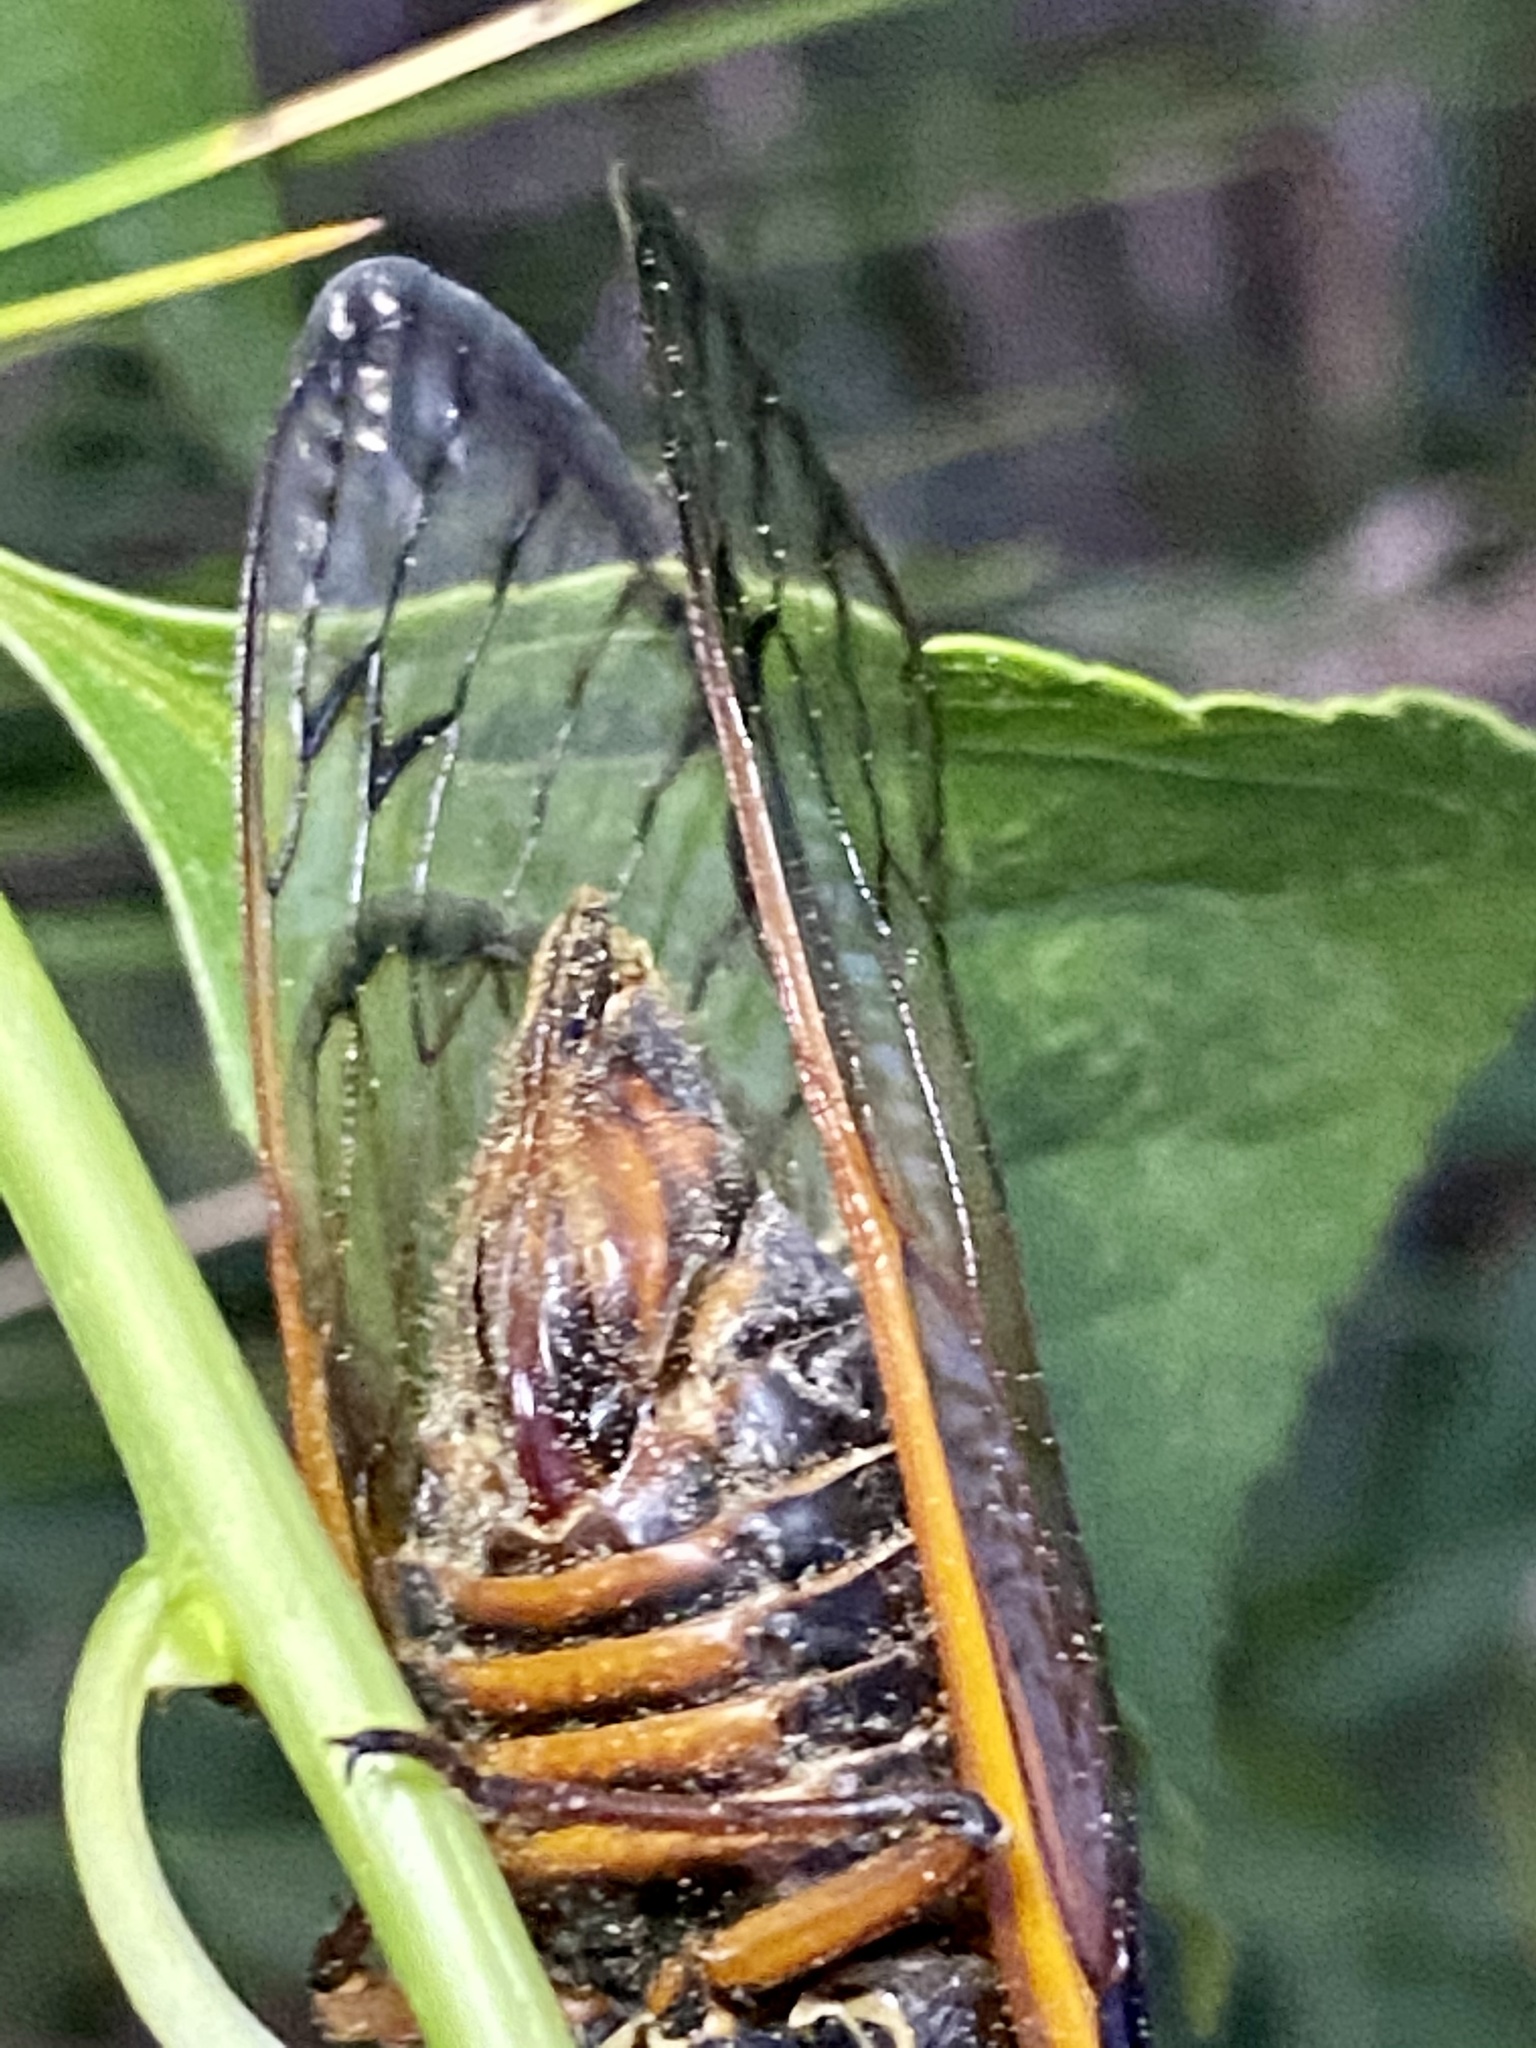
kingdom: Animalia
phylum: Arthropoda
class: Insecta
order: Hemiptera
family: Cicadidae
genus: Magicicada
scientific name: Magicicada septendecim
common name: Periodical cicada
